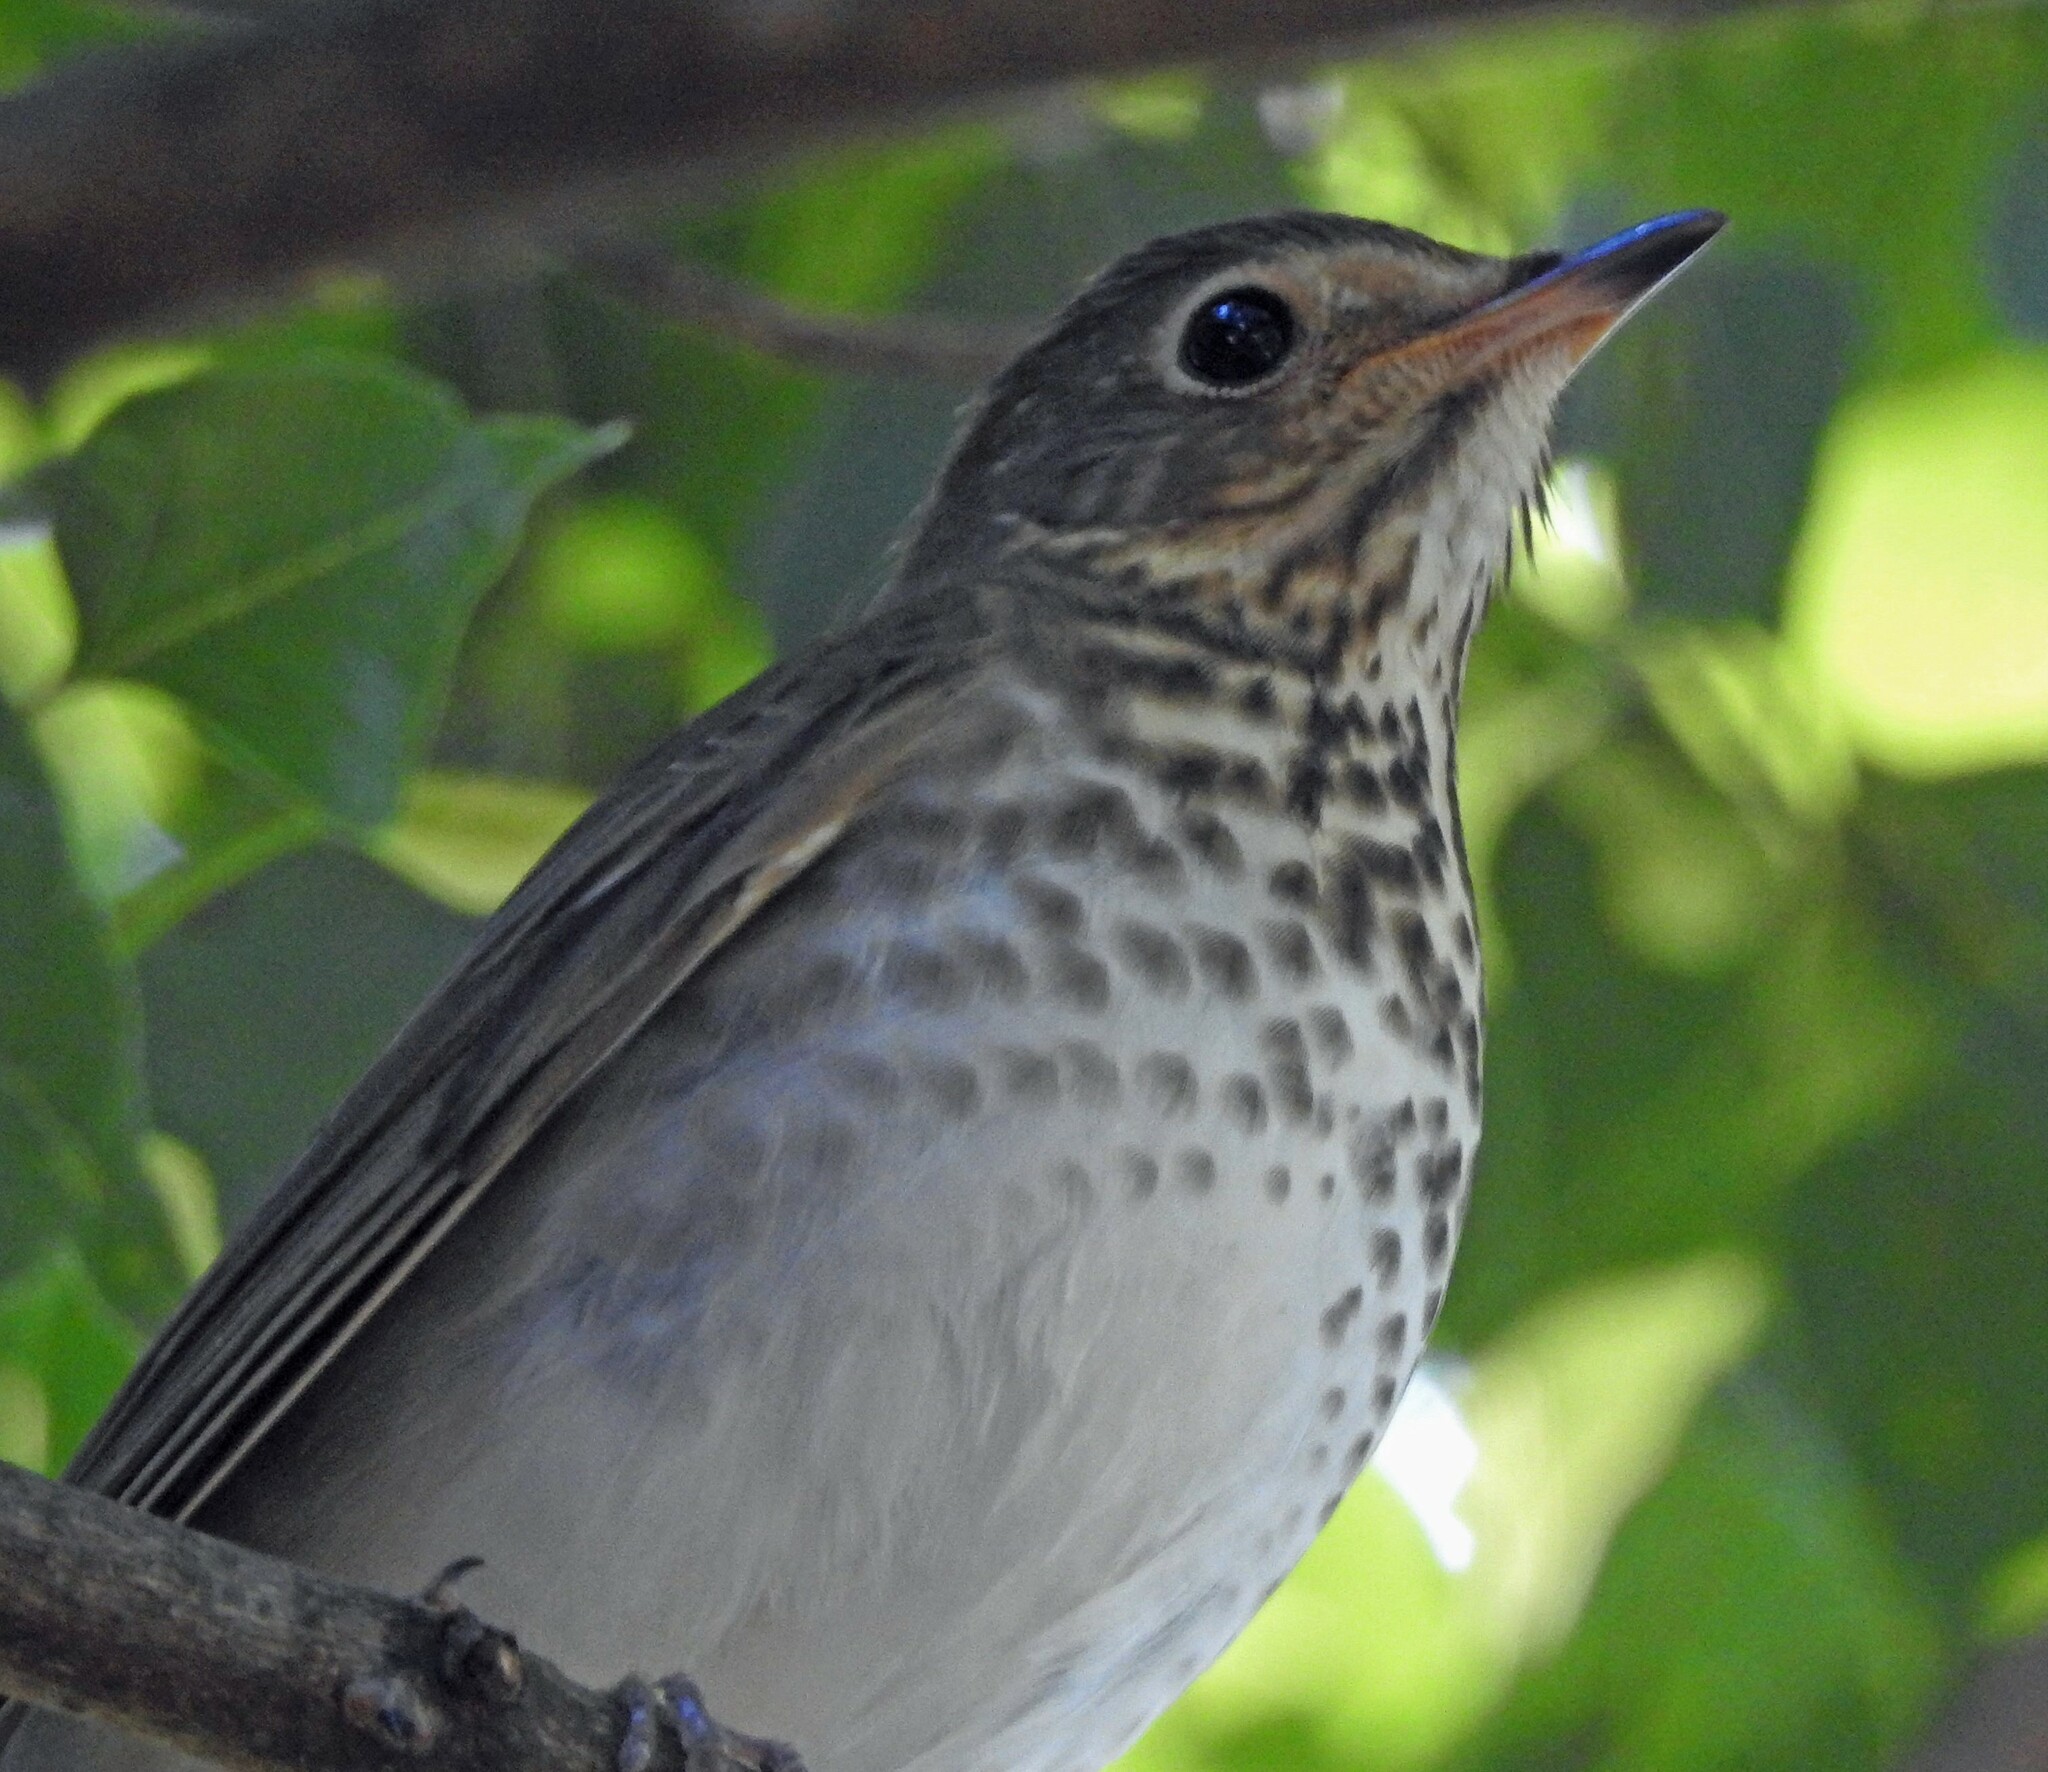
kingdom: Animalia
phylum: Chordata
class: Aves
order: Passeriformes
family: Turdidae
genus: Catharus
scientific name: Catharus ustulatus
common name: Swainson's thrush
